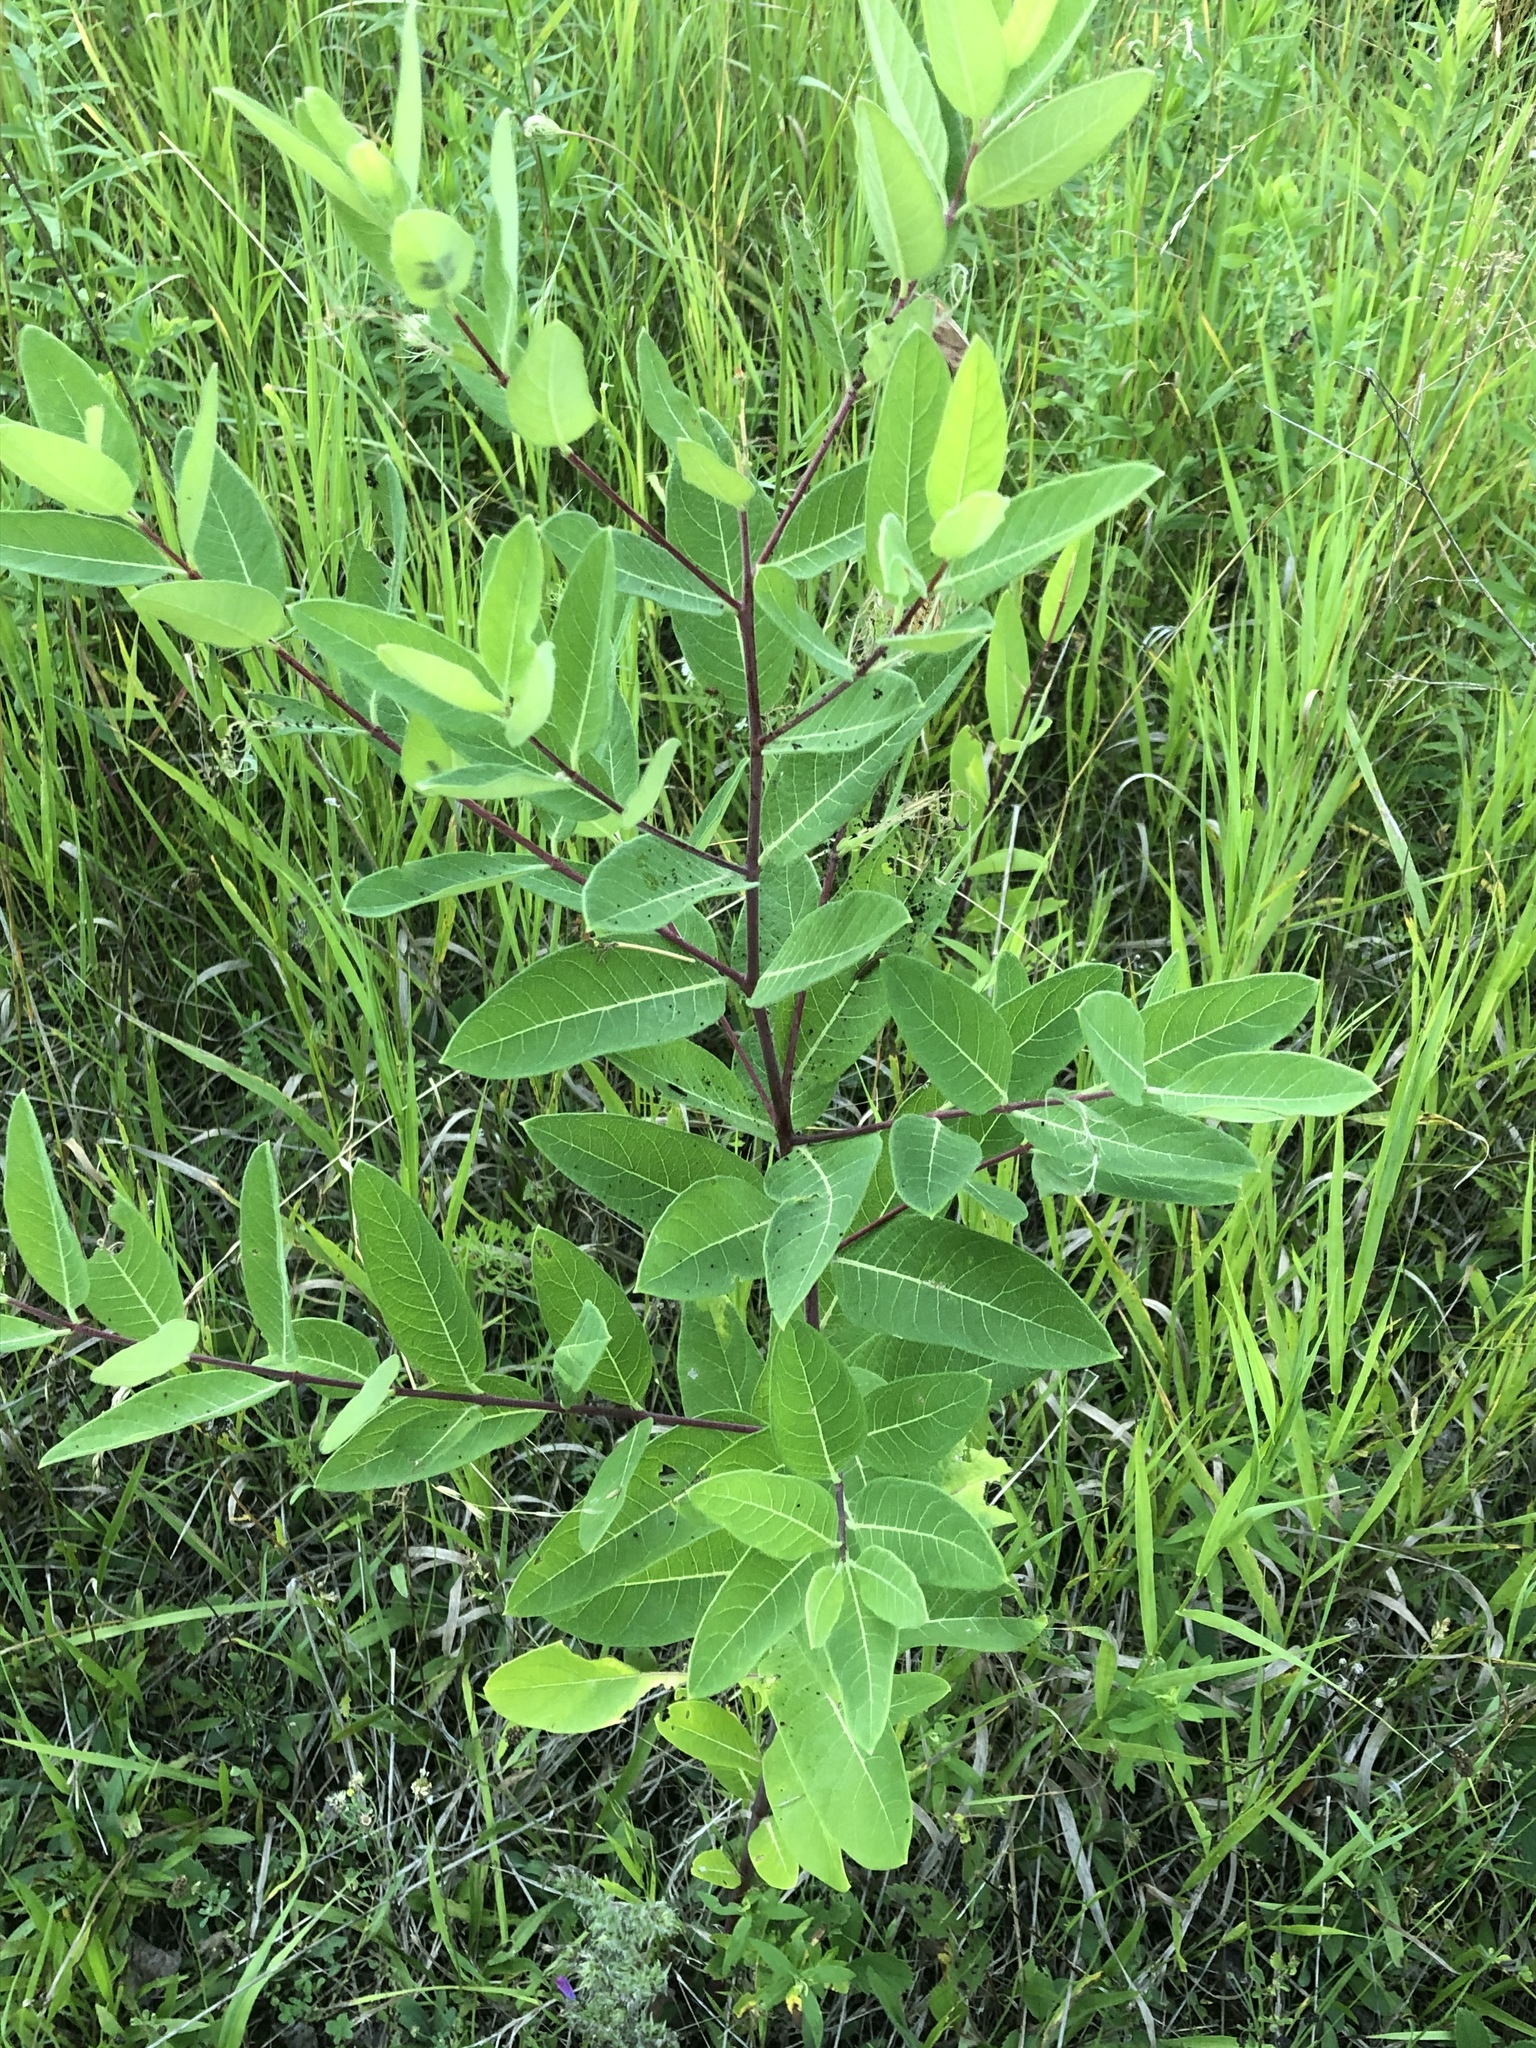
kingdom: Plantae
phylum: Tracheophyta
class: Magnoliopsida
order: Gentianales
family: Apocynaceae
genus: Apocynum
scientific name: Apocynum cannabinum
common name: Hemp dogbane
